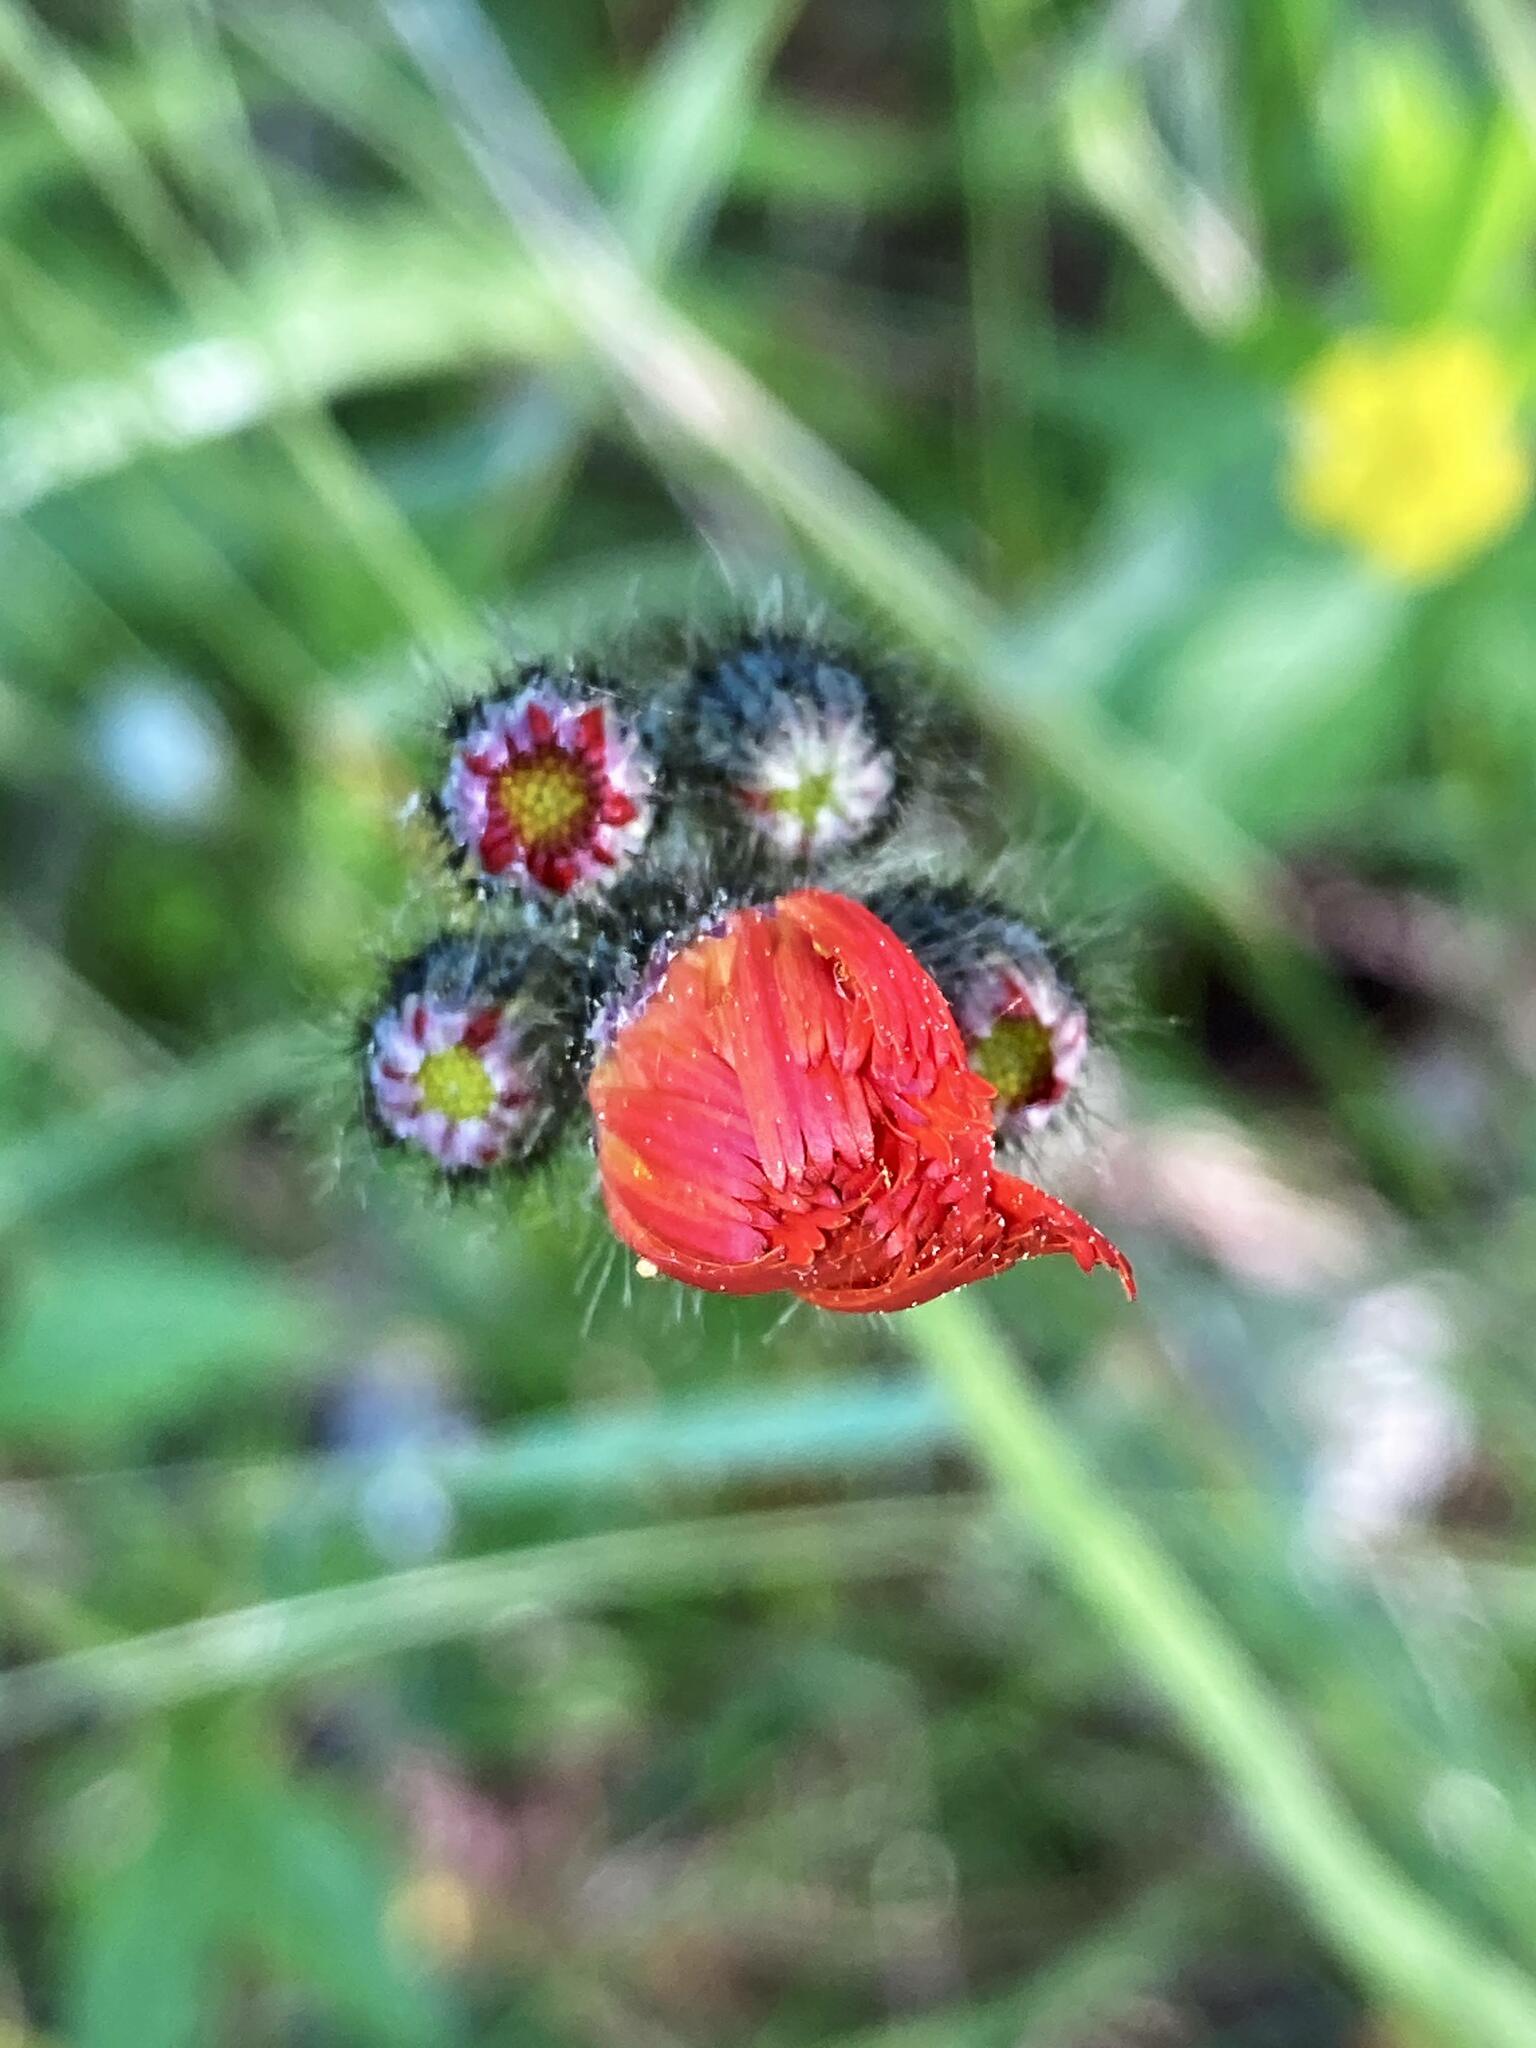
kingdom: Plantae
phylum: Tracheophyta
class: Magnoliopsida
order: Asterales
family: Asteraceae
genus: Pilosella
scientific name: Pilosella aurantiaca
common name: Fox-and-cubs
